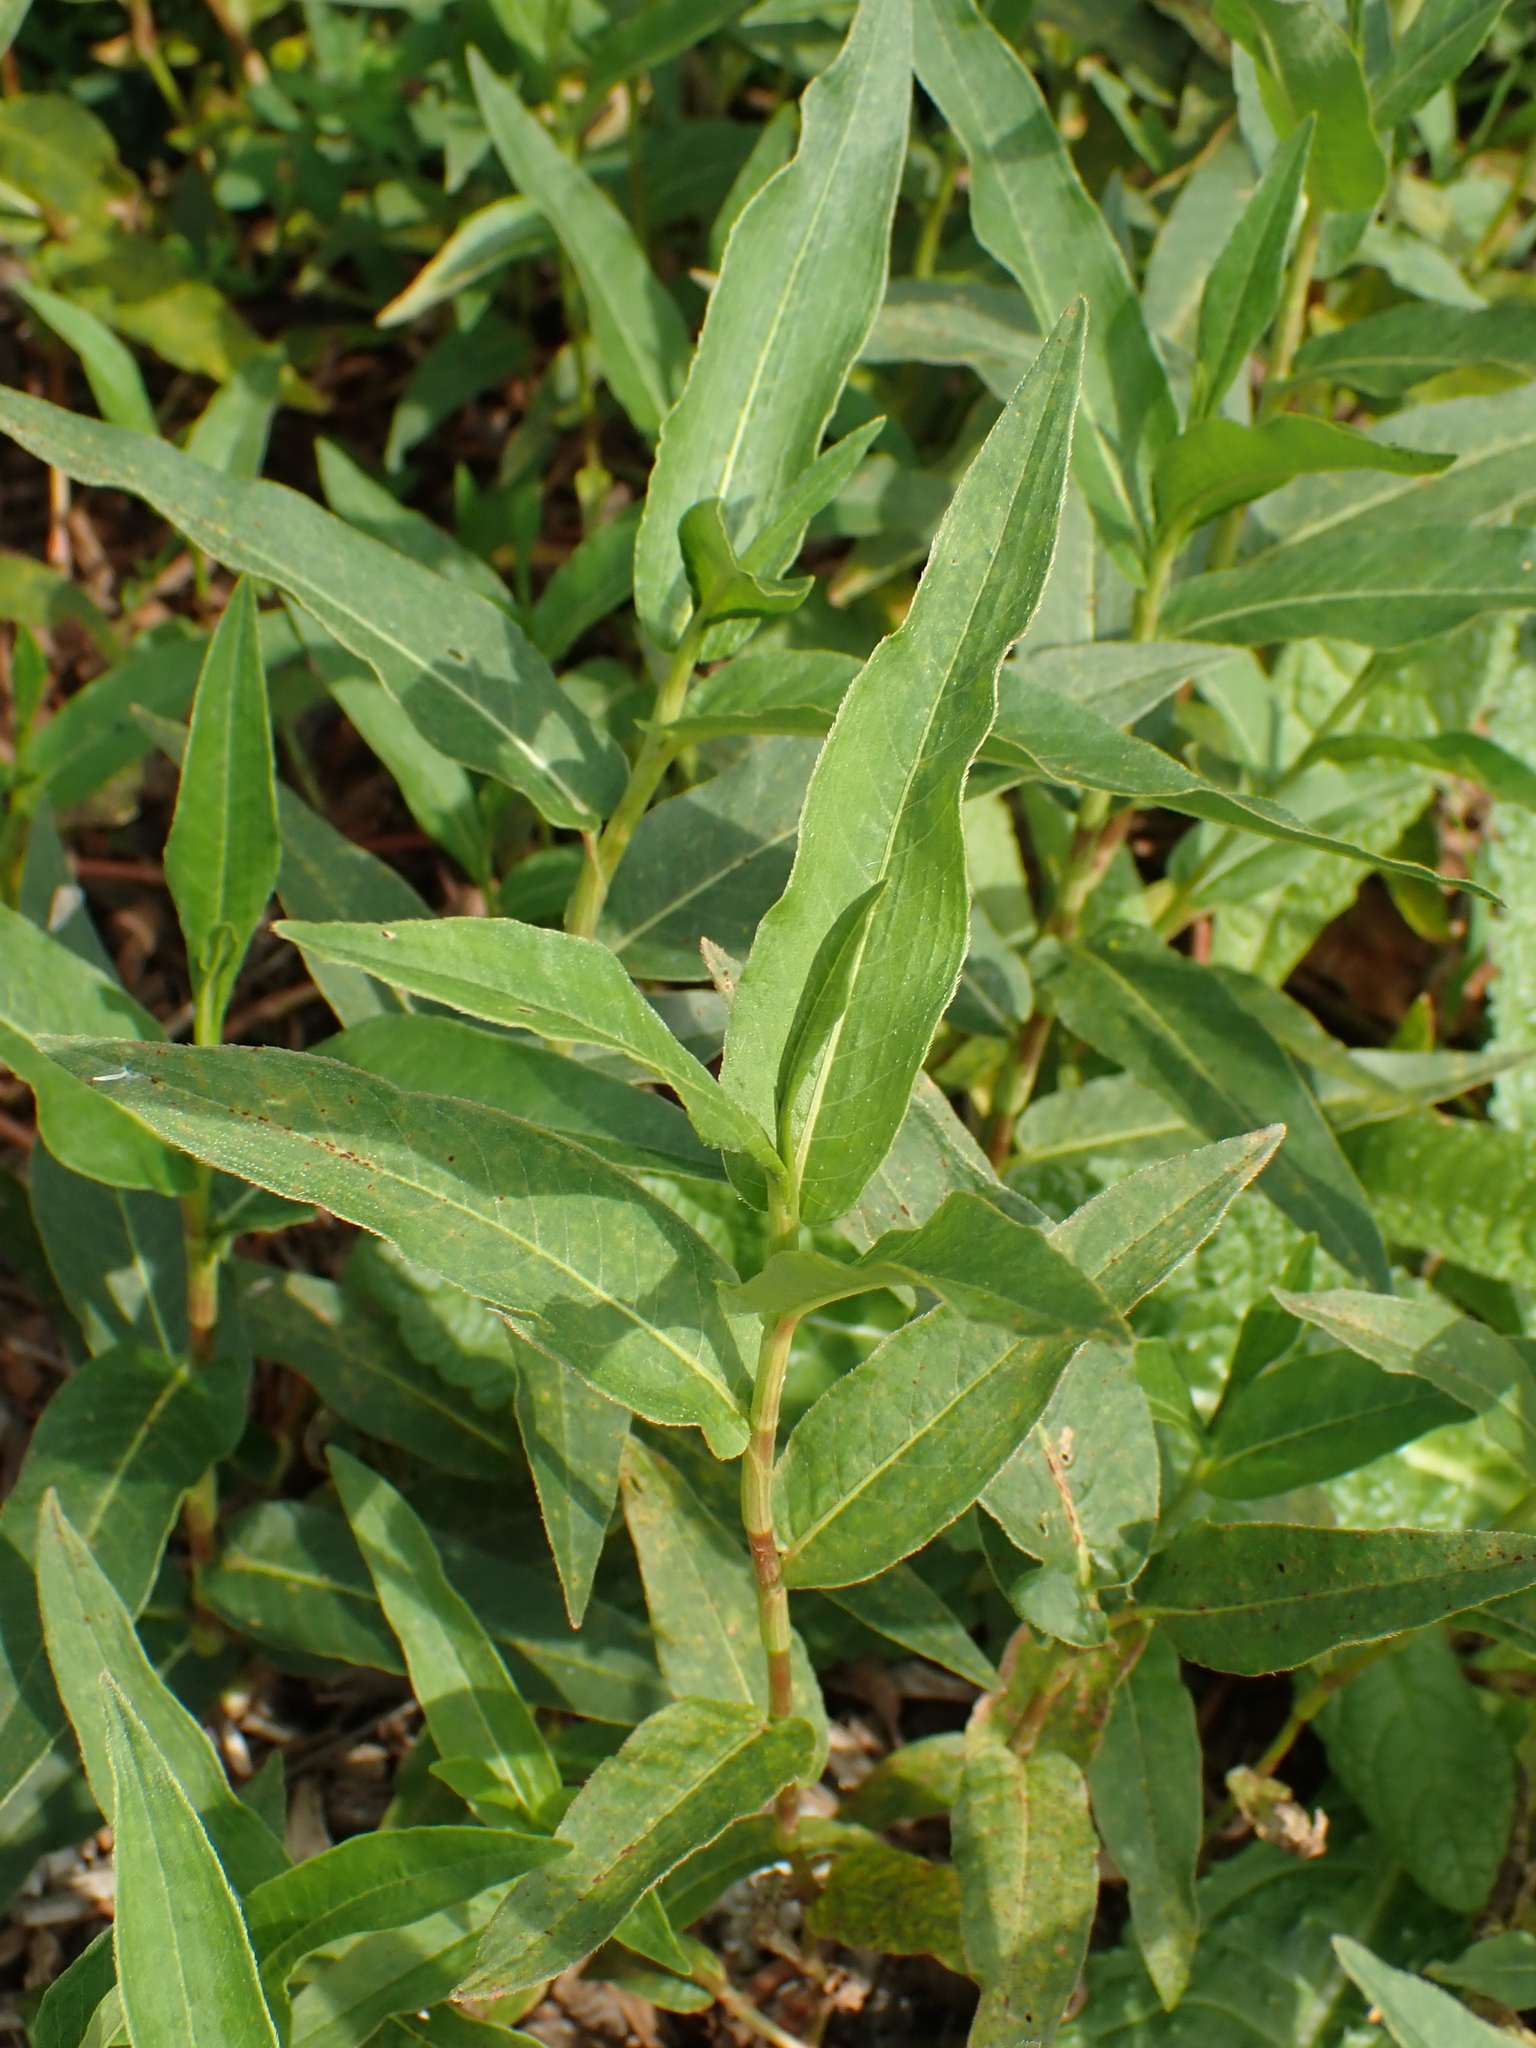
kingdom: Plantae
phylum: Tracheophyta
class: Magnoliopsida
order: Caryophyllales
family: Polygonaceae
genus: Persicaria
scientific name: Persicaria amphibia
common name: Amphibious bistort
